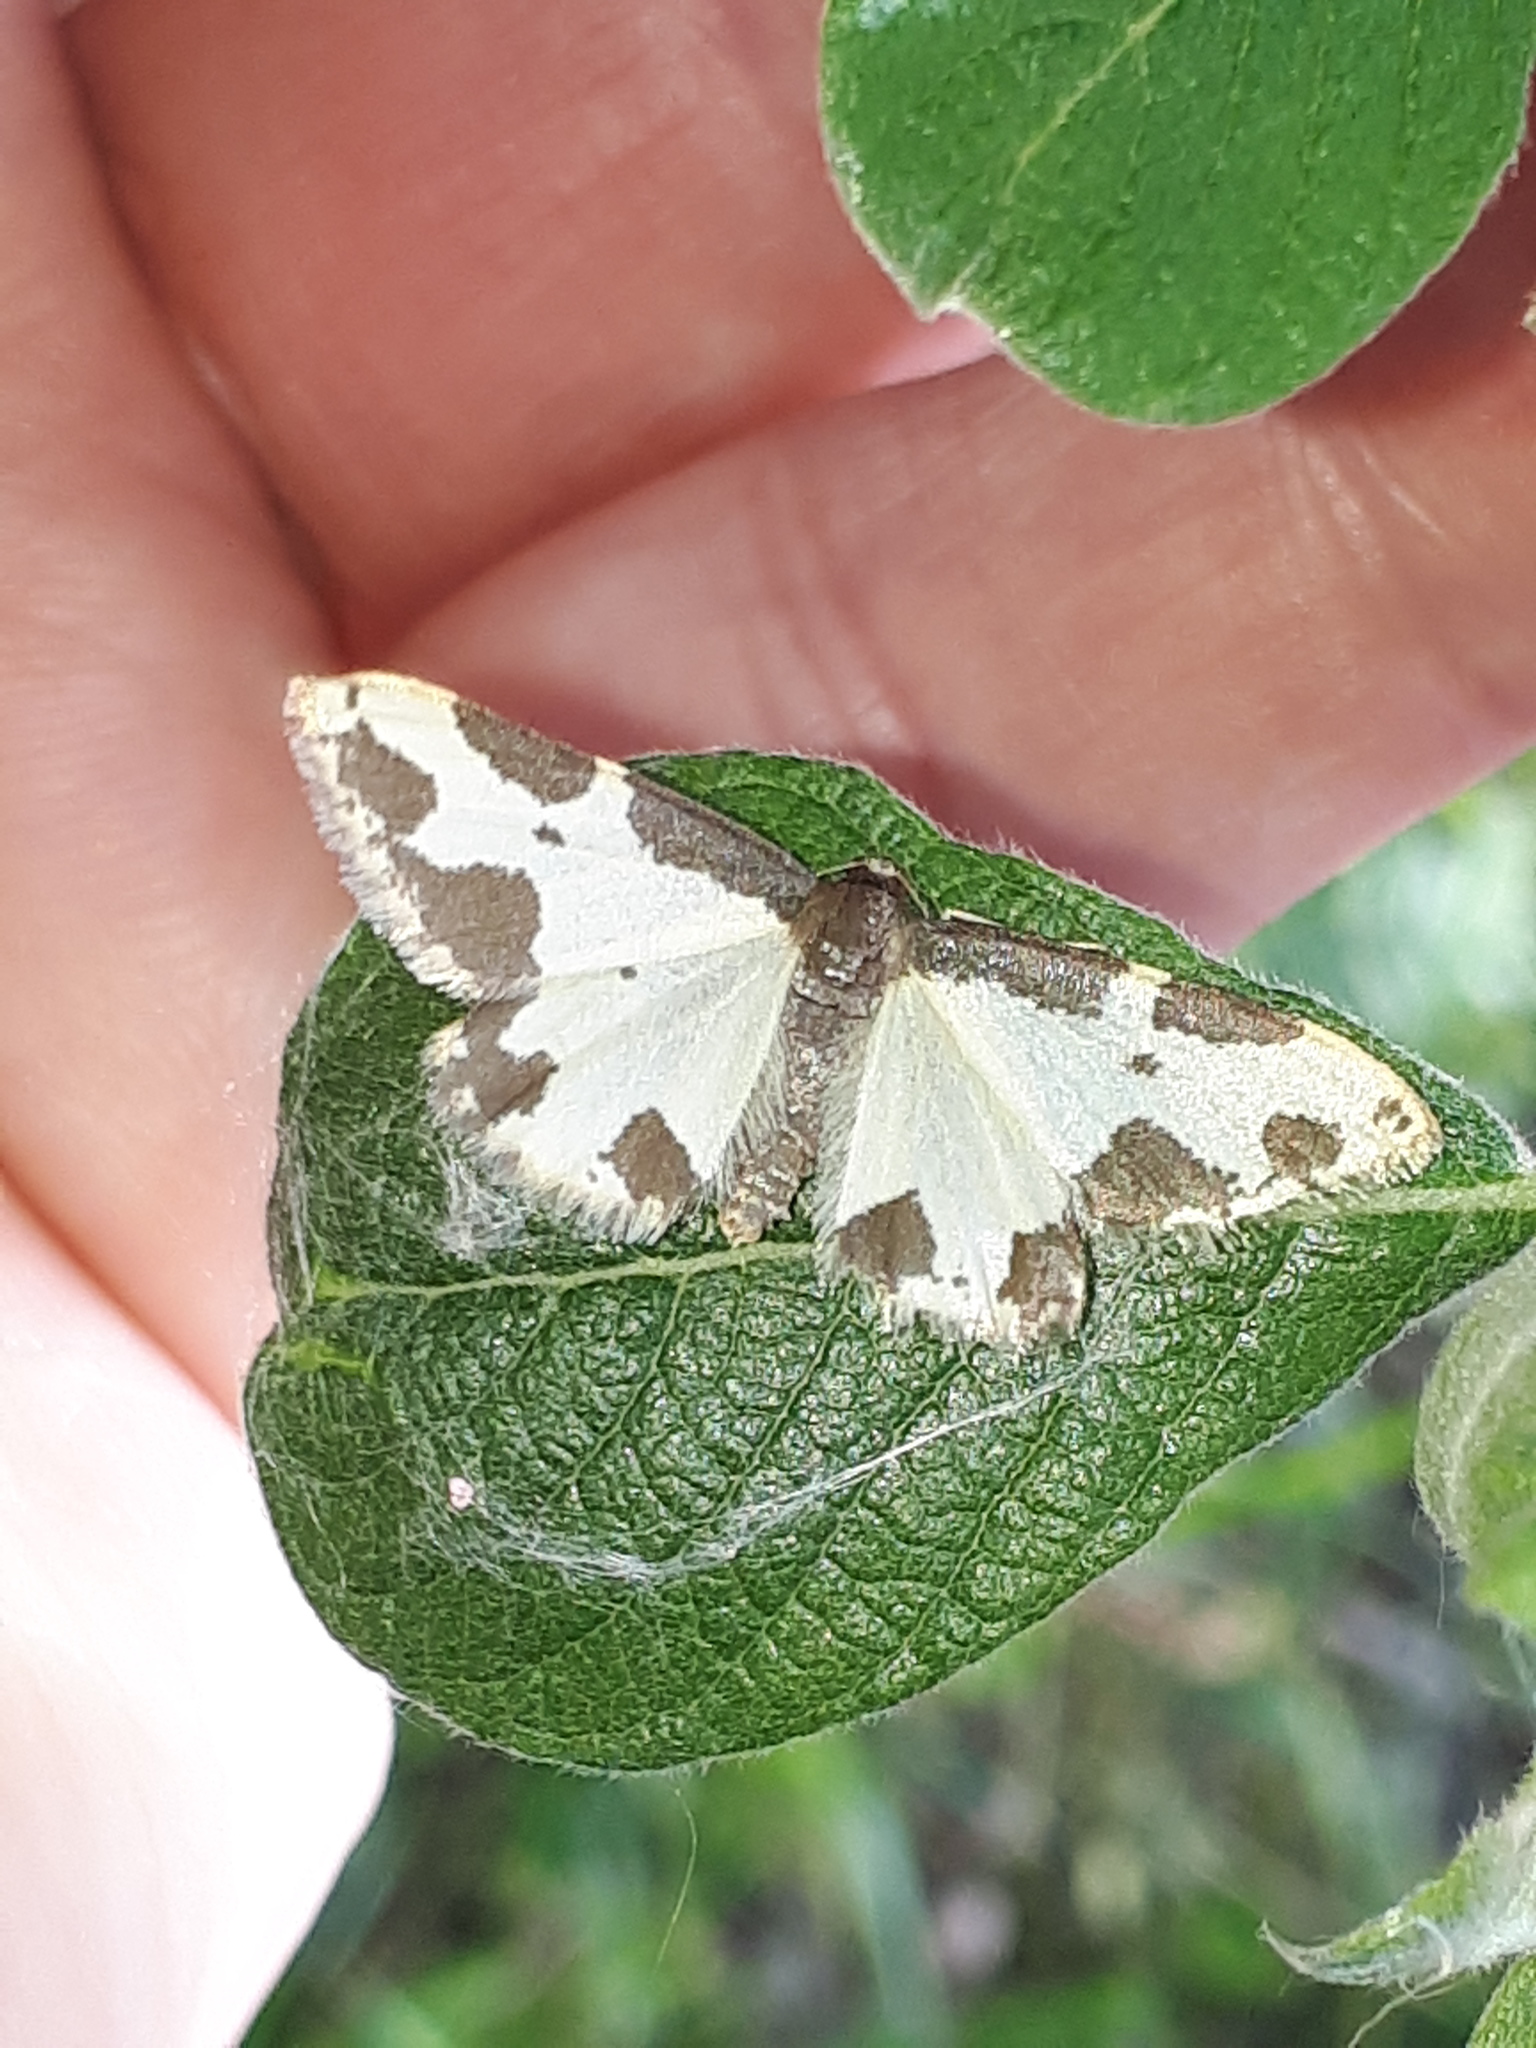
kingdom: Animalia
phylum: Arthropoda
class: Insecta
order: Lepidoptera
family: Geometridae
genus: Lomaspilis
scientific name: Lomaspilis marginata
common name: Clouded border
